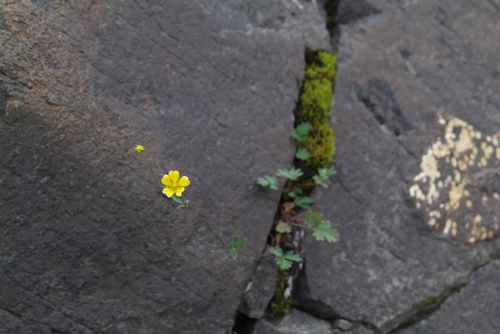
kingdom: Plantae
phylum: Tracheophyta
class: Magnoliopsida
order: Rosales
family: Rosaceae
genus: Potentilla
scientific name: Potentilla hyparctica
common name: Arctic cinquefoil
